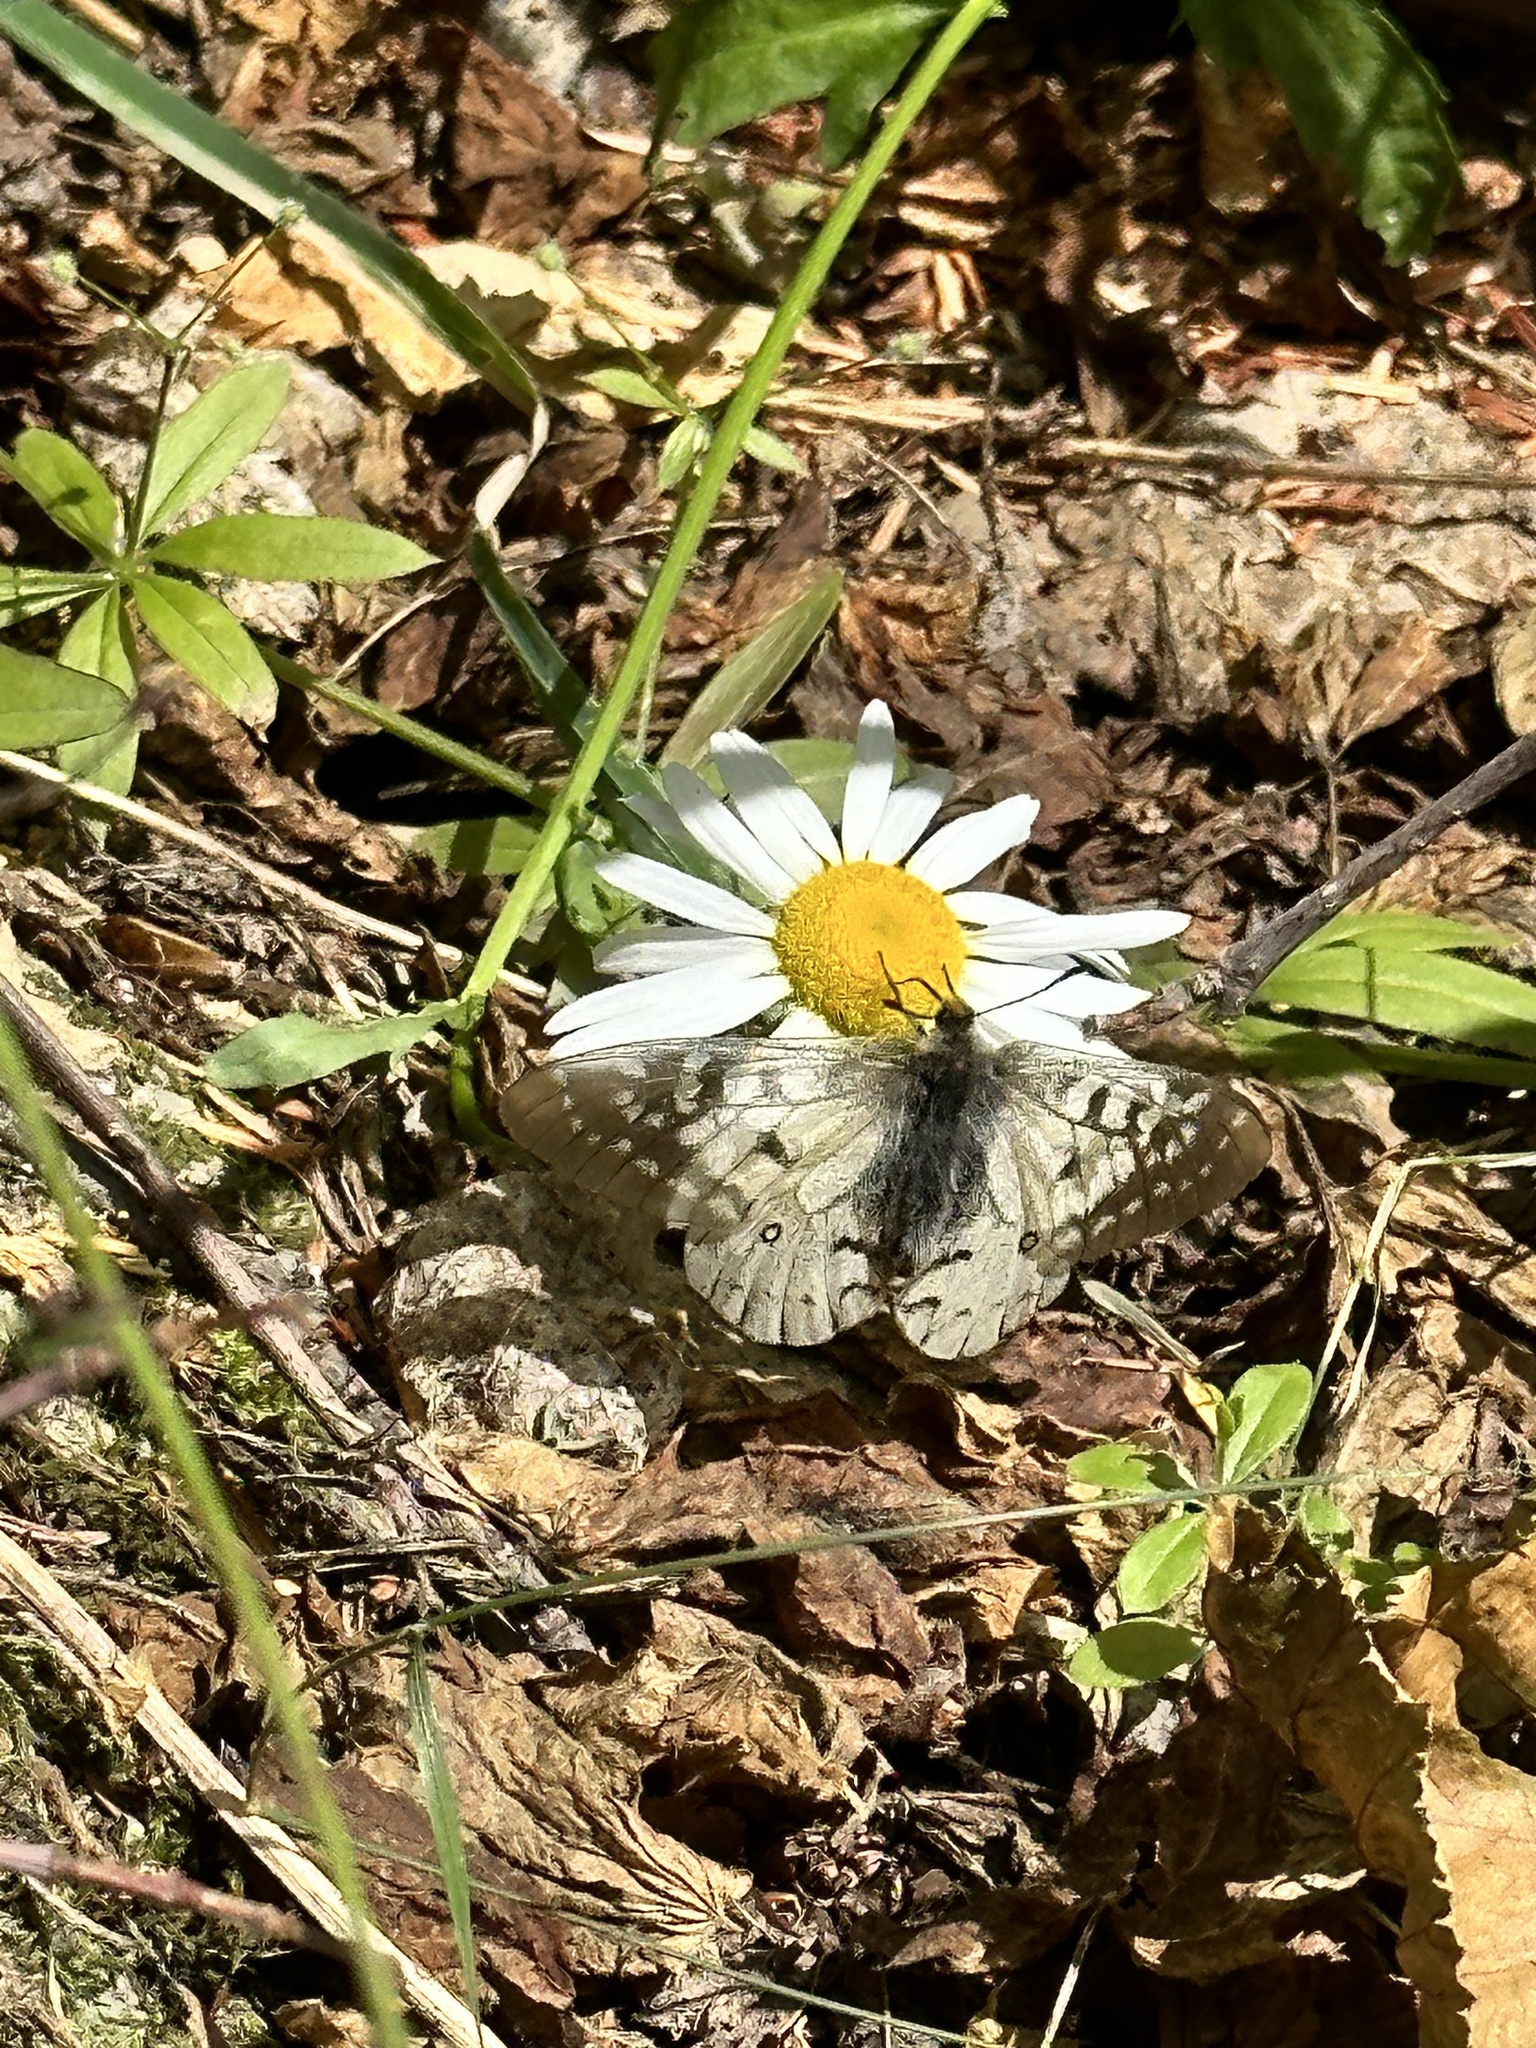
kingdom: Animalia
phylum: Arthropoda
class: Insecta
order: Lepidoptera
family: Papilionidae
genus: Parnassius
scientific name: Parnassius clodius
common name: American apollo
